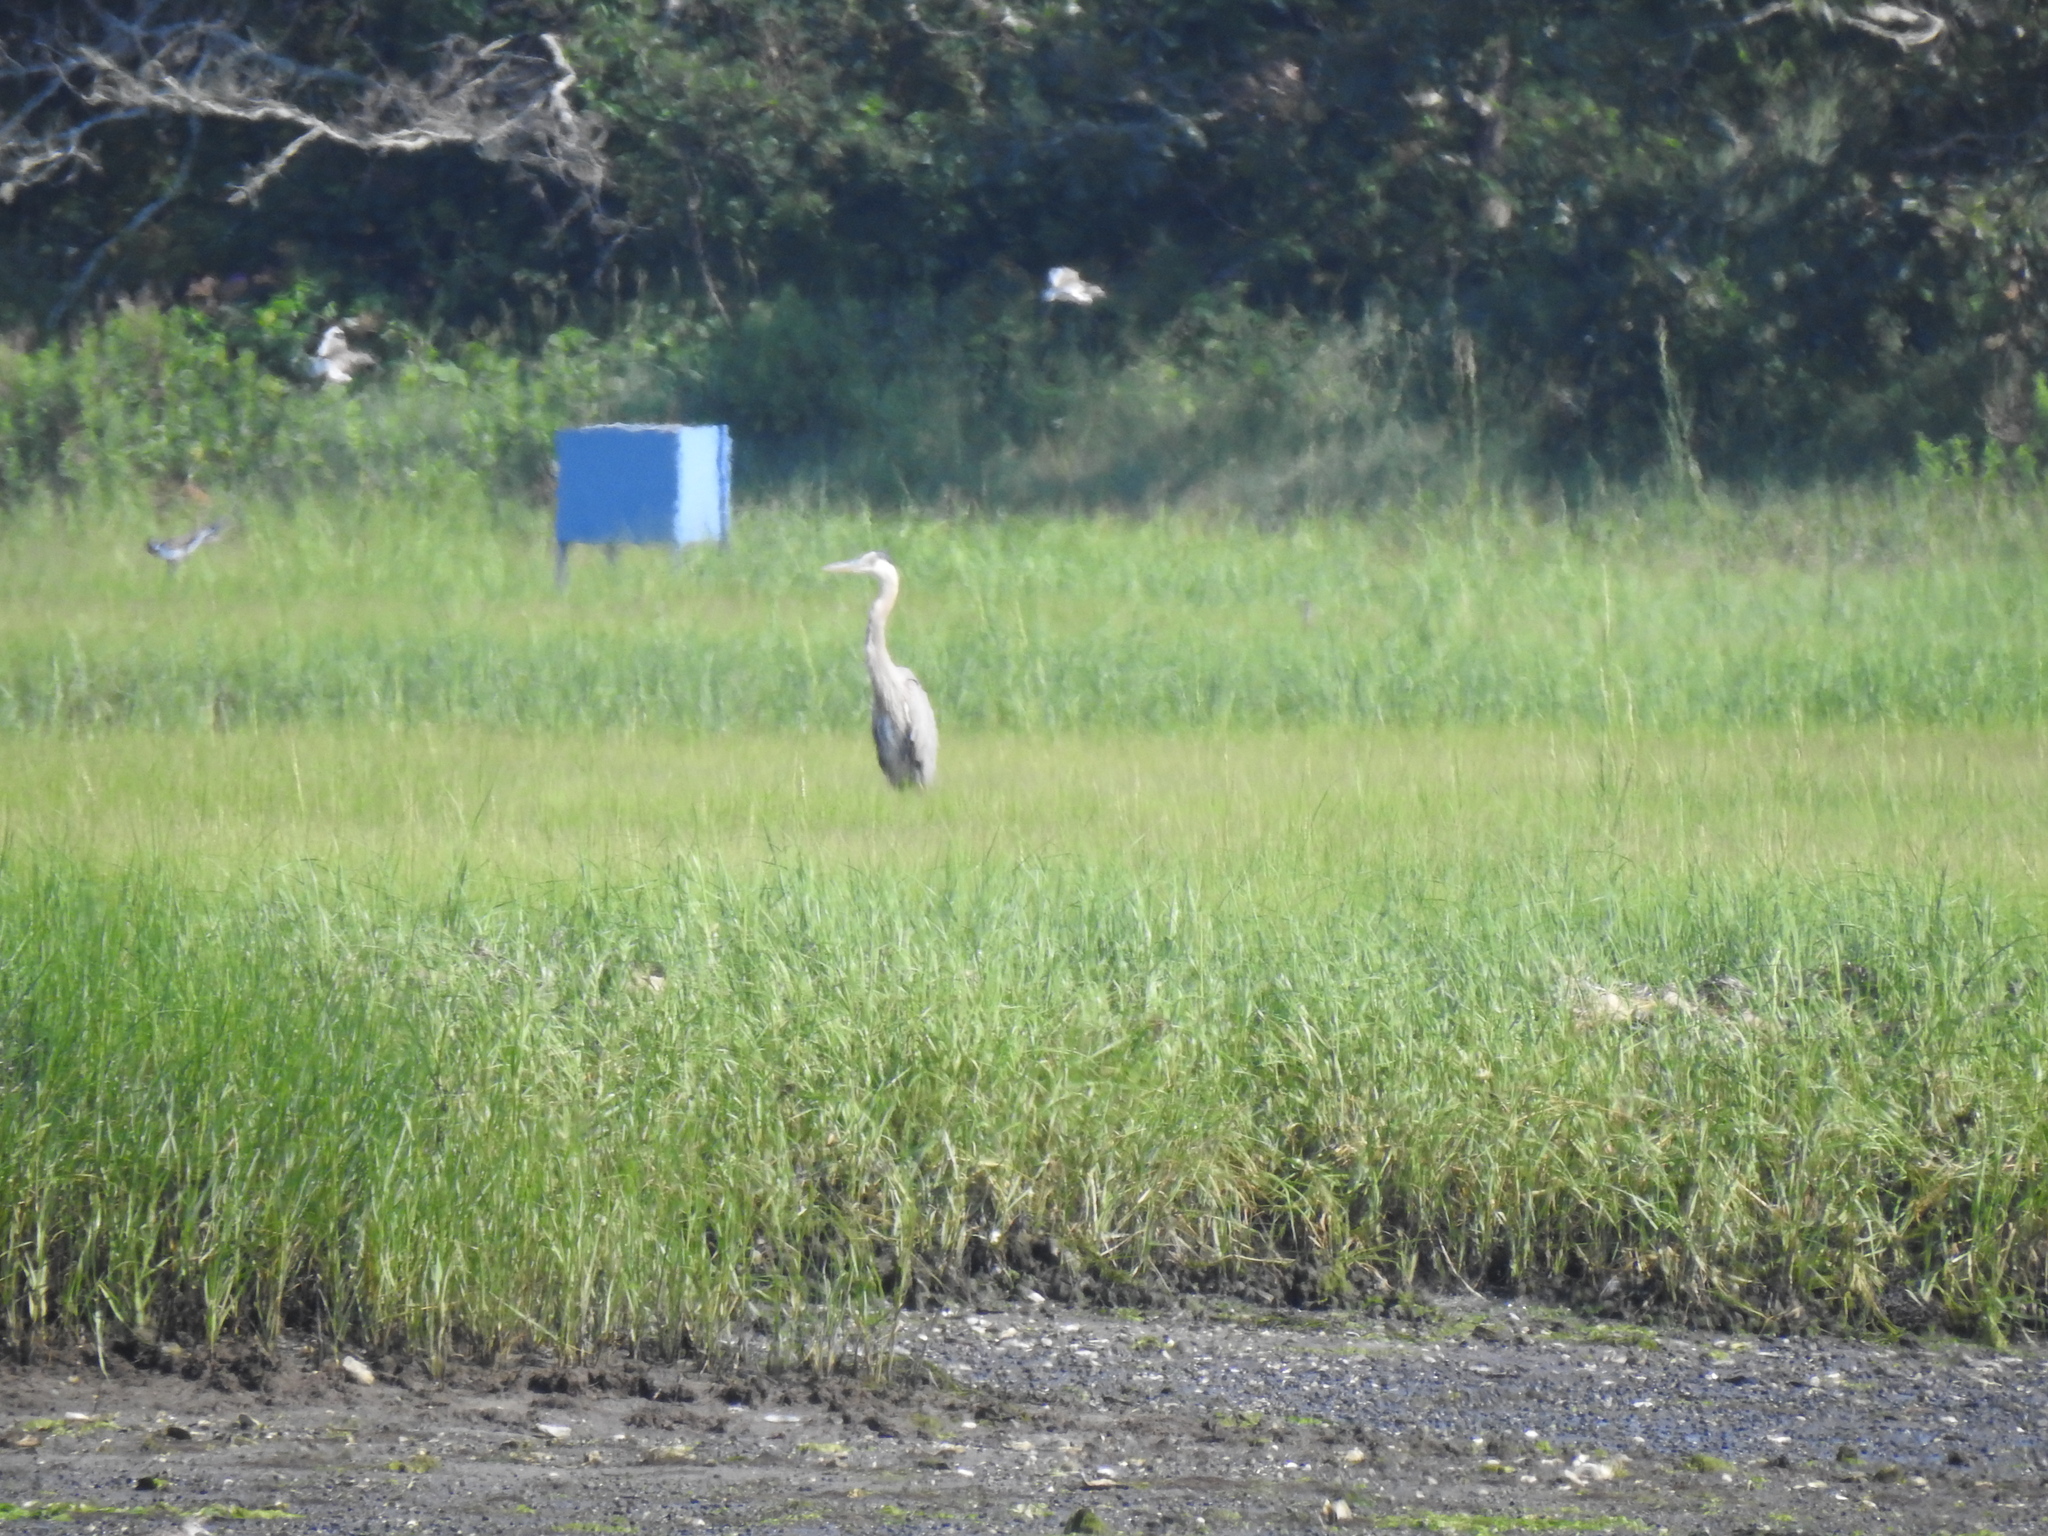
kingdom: Animalia
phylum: Chordata
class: Aves
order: Pelecaniformes
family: Ardeidae
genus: Ardea
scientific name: Ardea herodias
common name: Great blue heron
